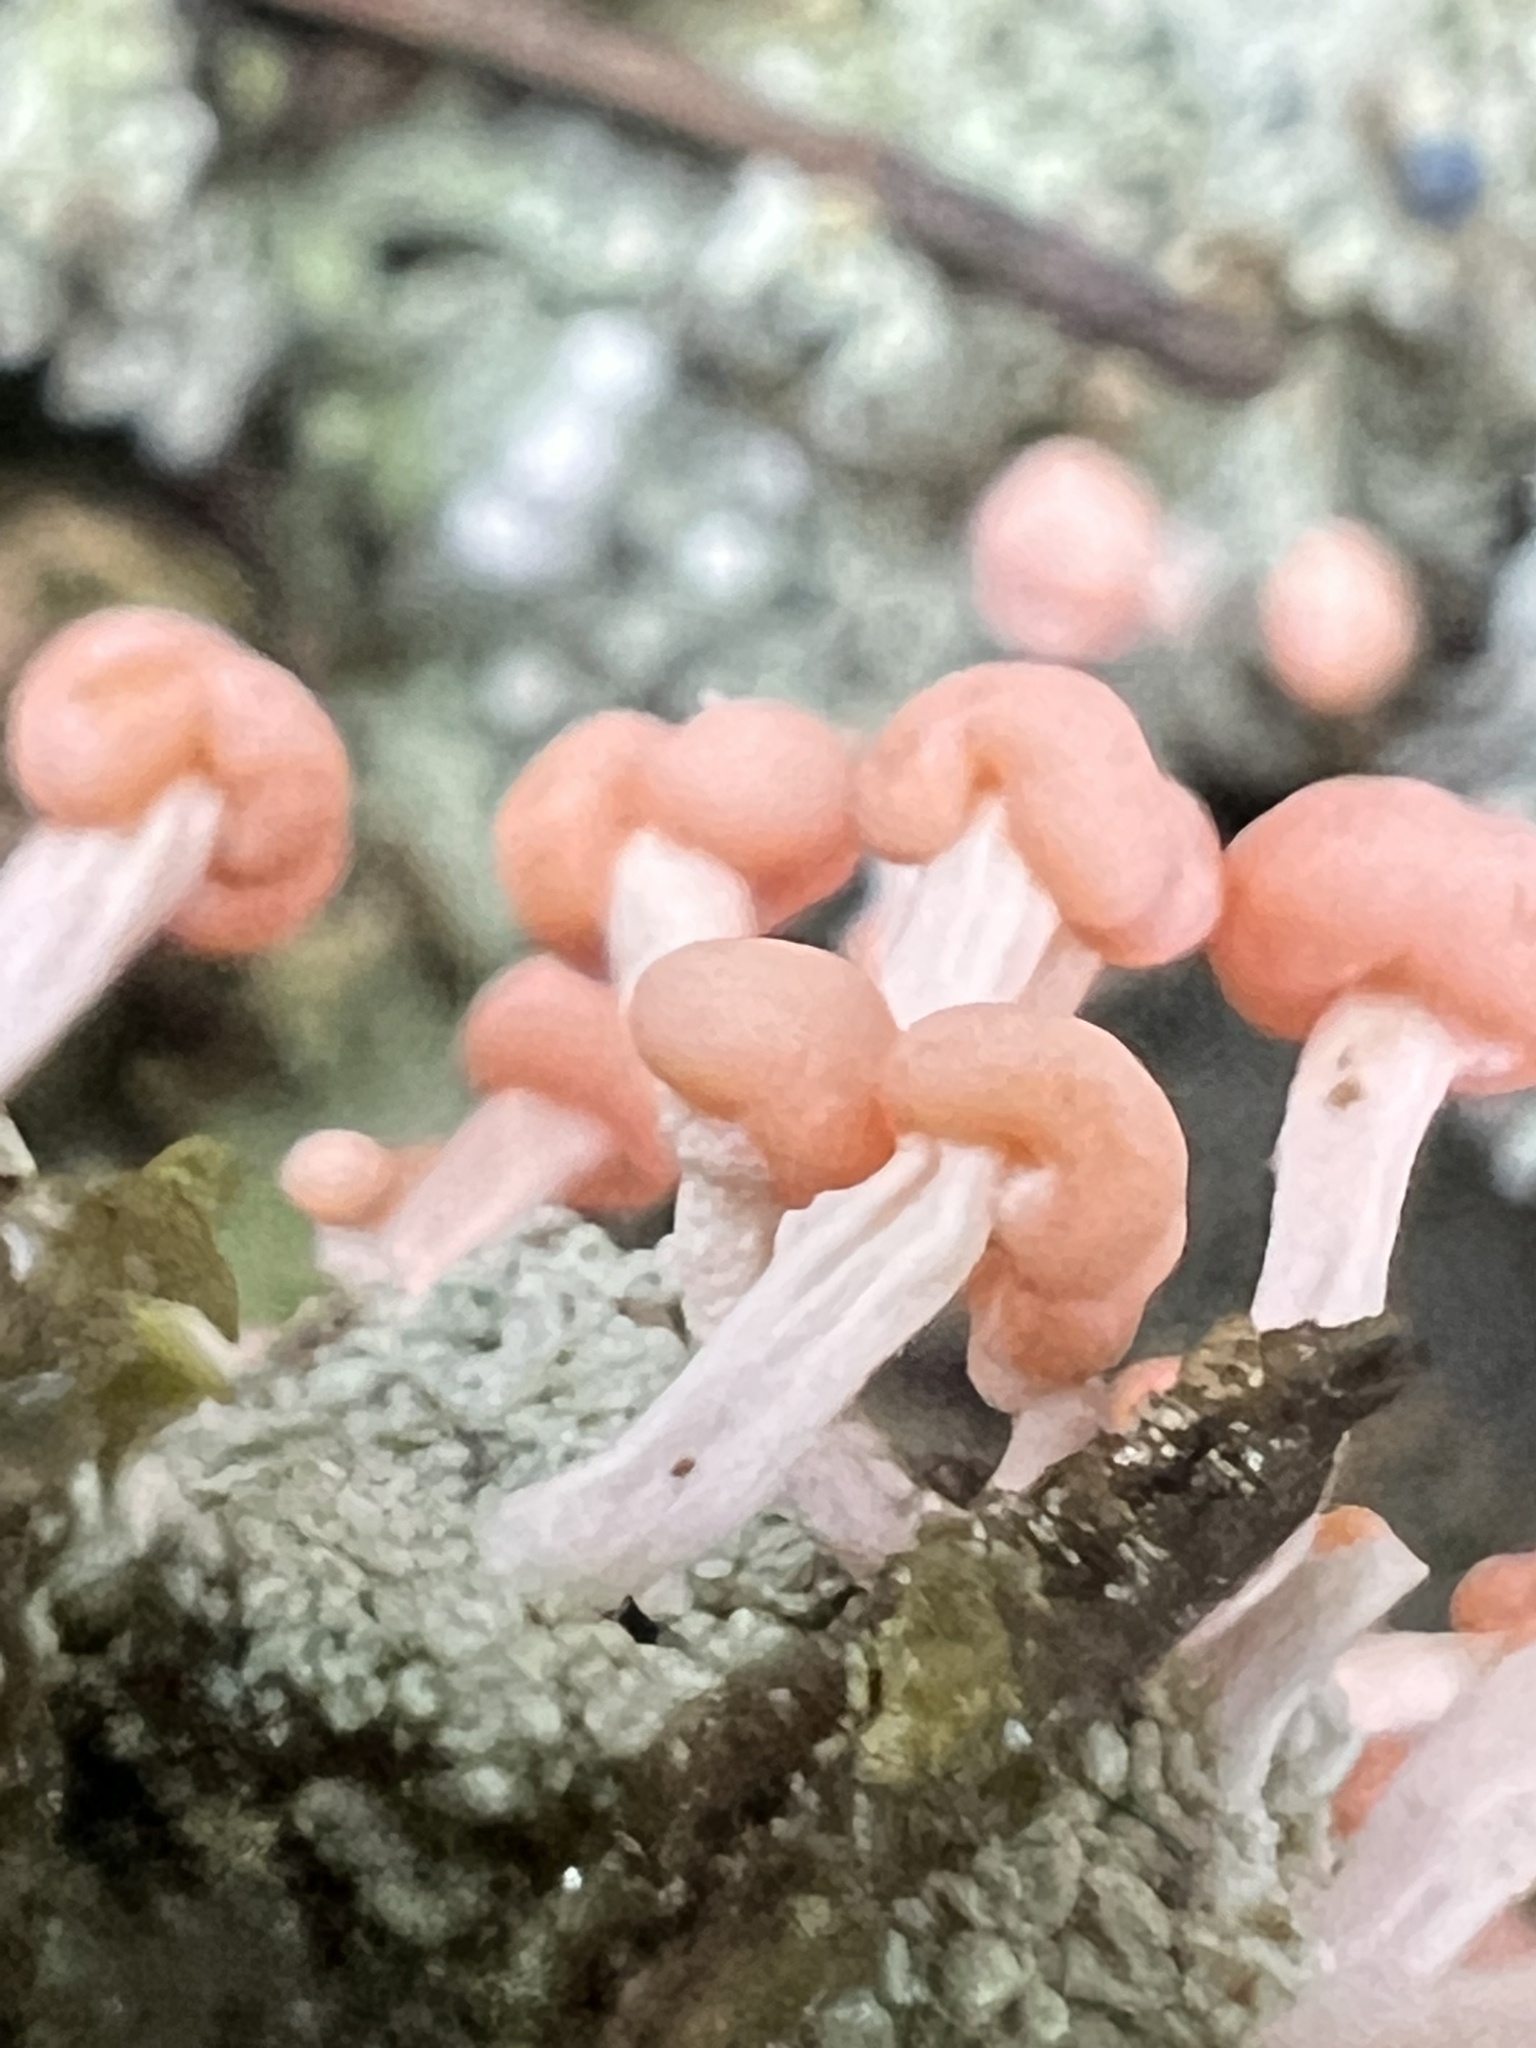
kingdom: Fungi
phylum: Ascomycota
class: Lecanoromycetes
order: Pertusariales
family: Icmadophilaceae
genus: Dibaeis
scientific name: Dibaeis baeomyces
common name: Pink earth lichen
